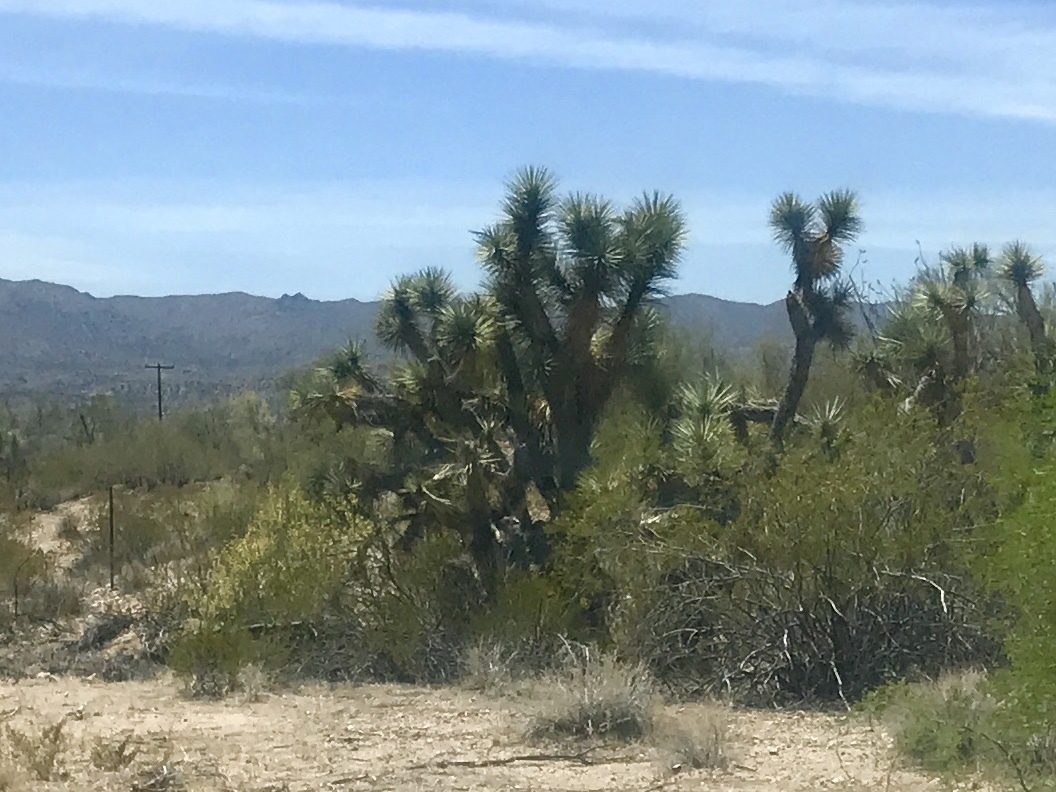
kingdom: Plantae
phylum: Tracheophyta
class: Liliopsida
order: Asparagales
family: Asparagaceae
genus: Yucca
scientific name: Yucca brevifolia
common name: Joshua tree
